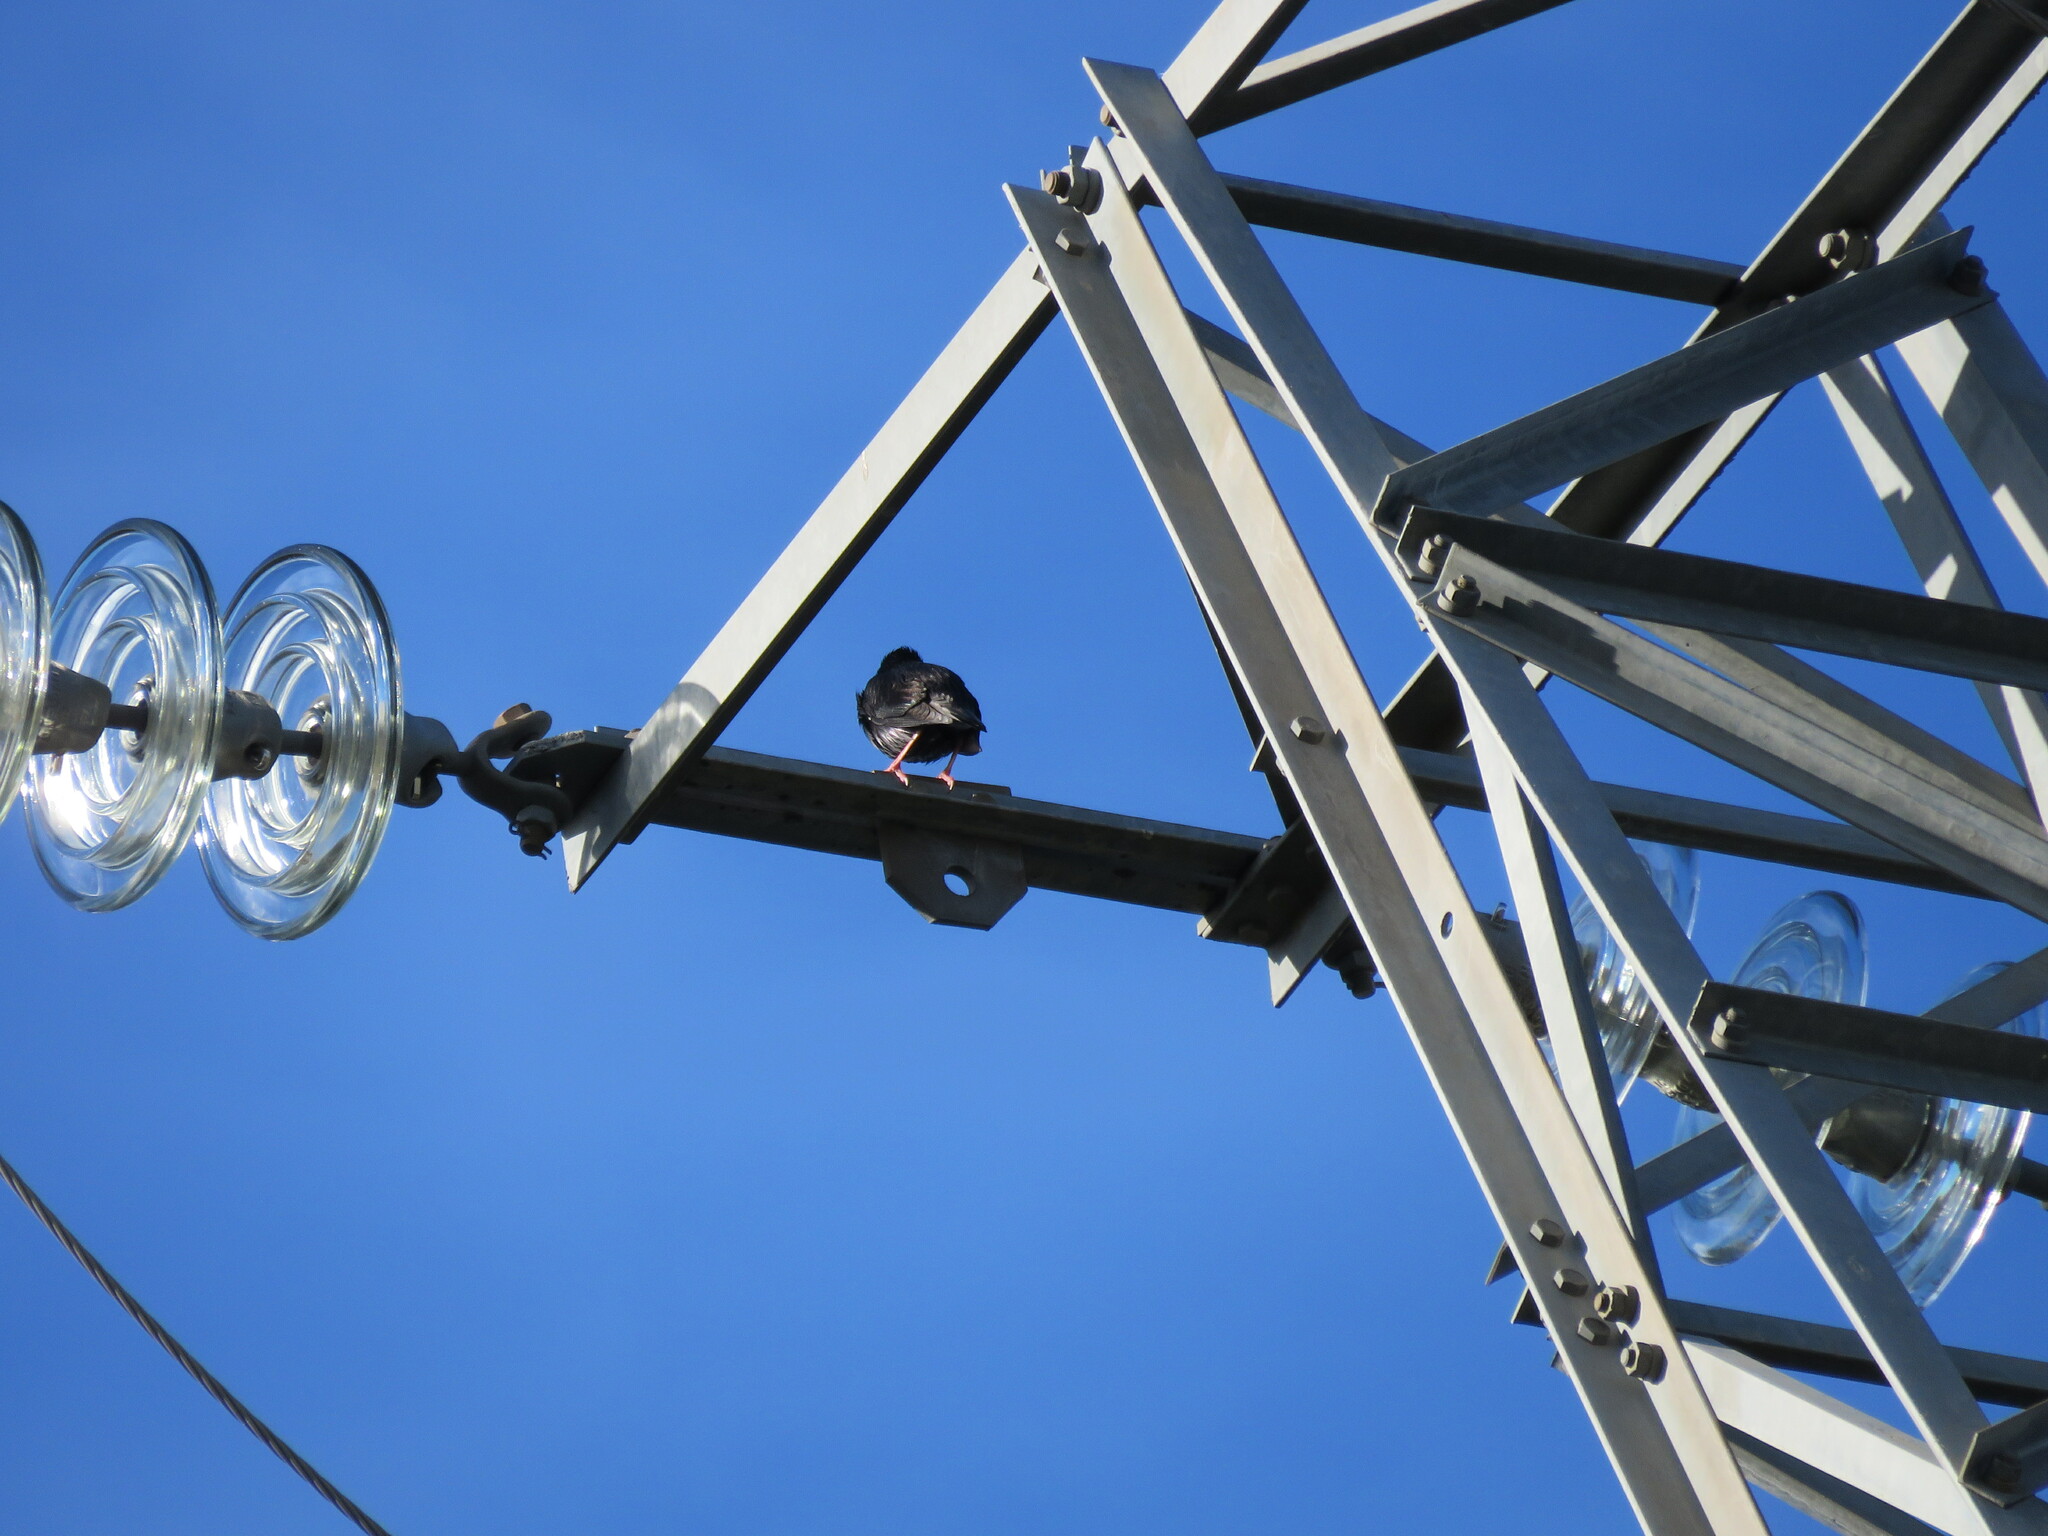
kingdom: Animalia
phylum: Chordata
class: Aves
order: Passeriformes
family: Sturnidae
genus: Sturnus
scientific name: Sturnus unicolor
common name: Spotless starling
